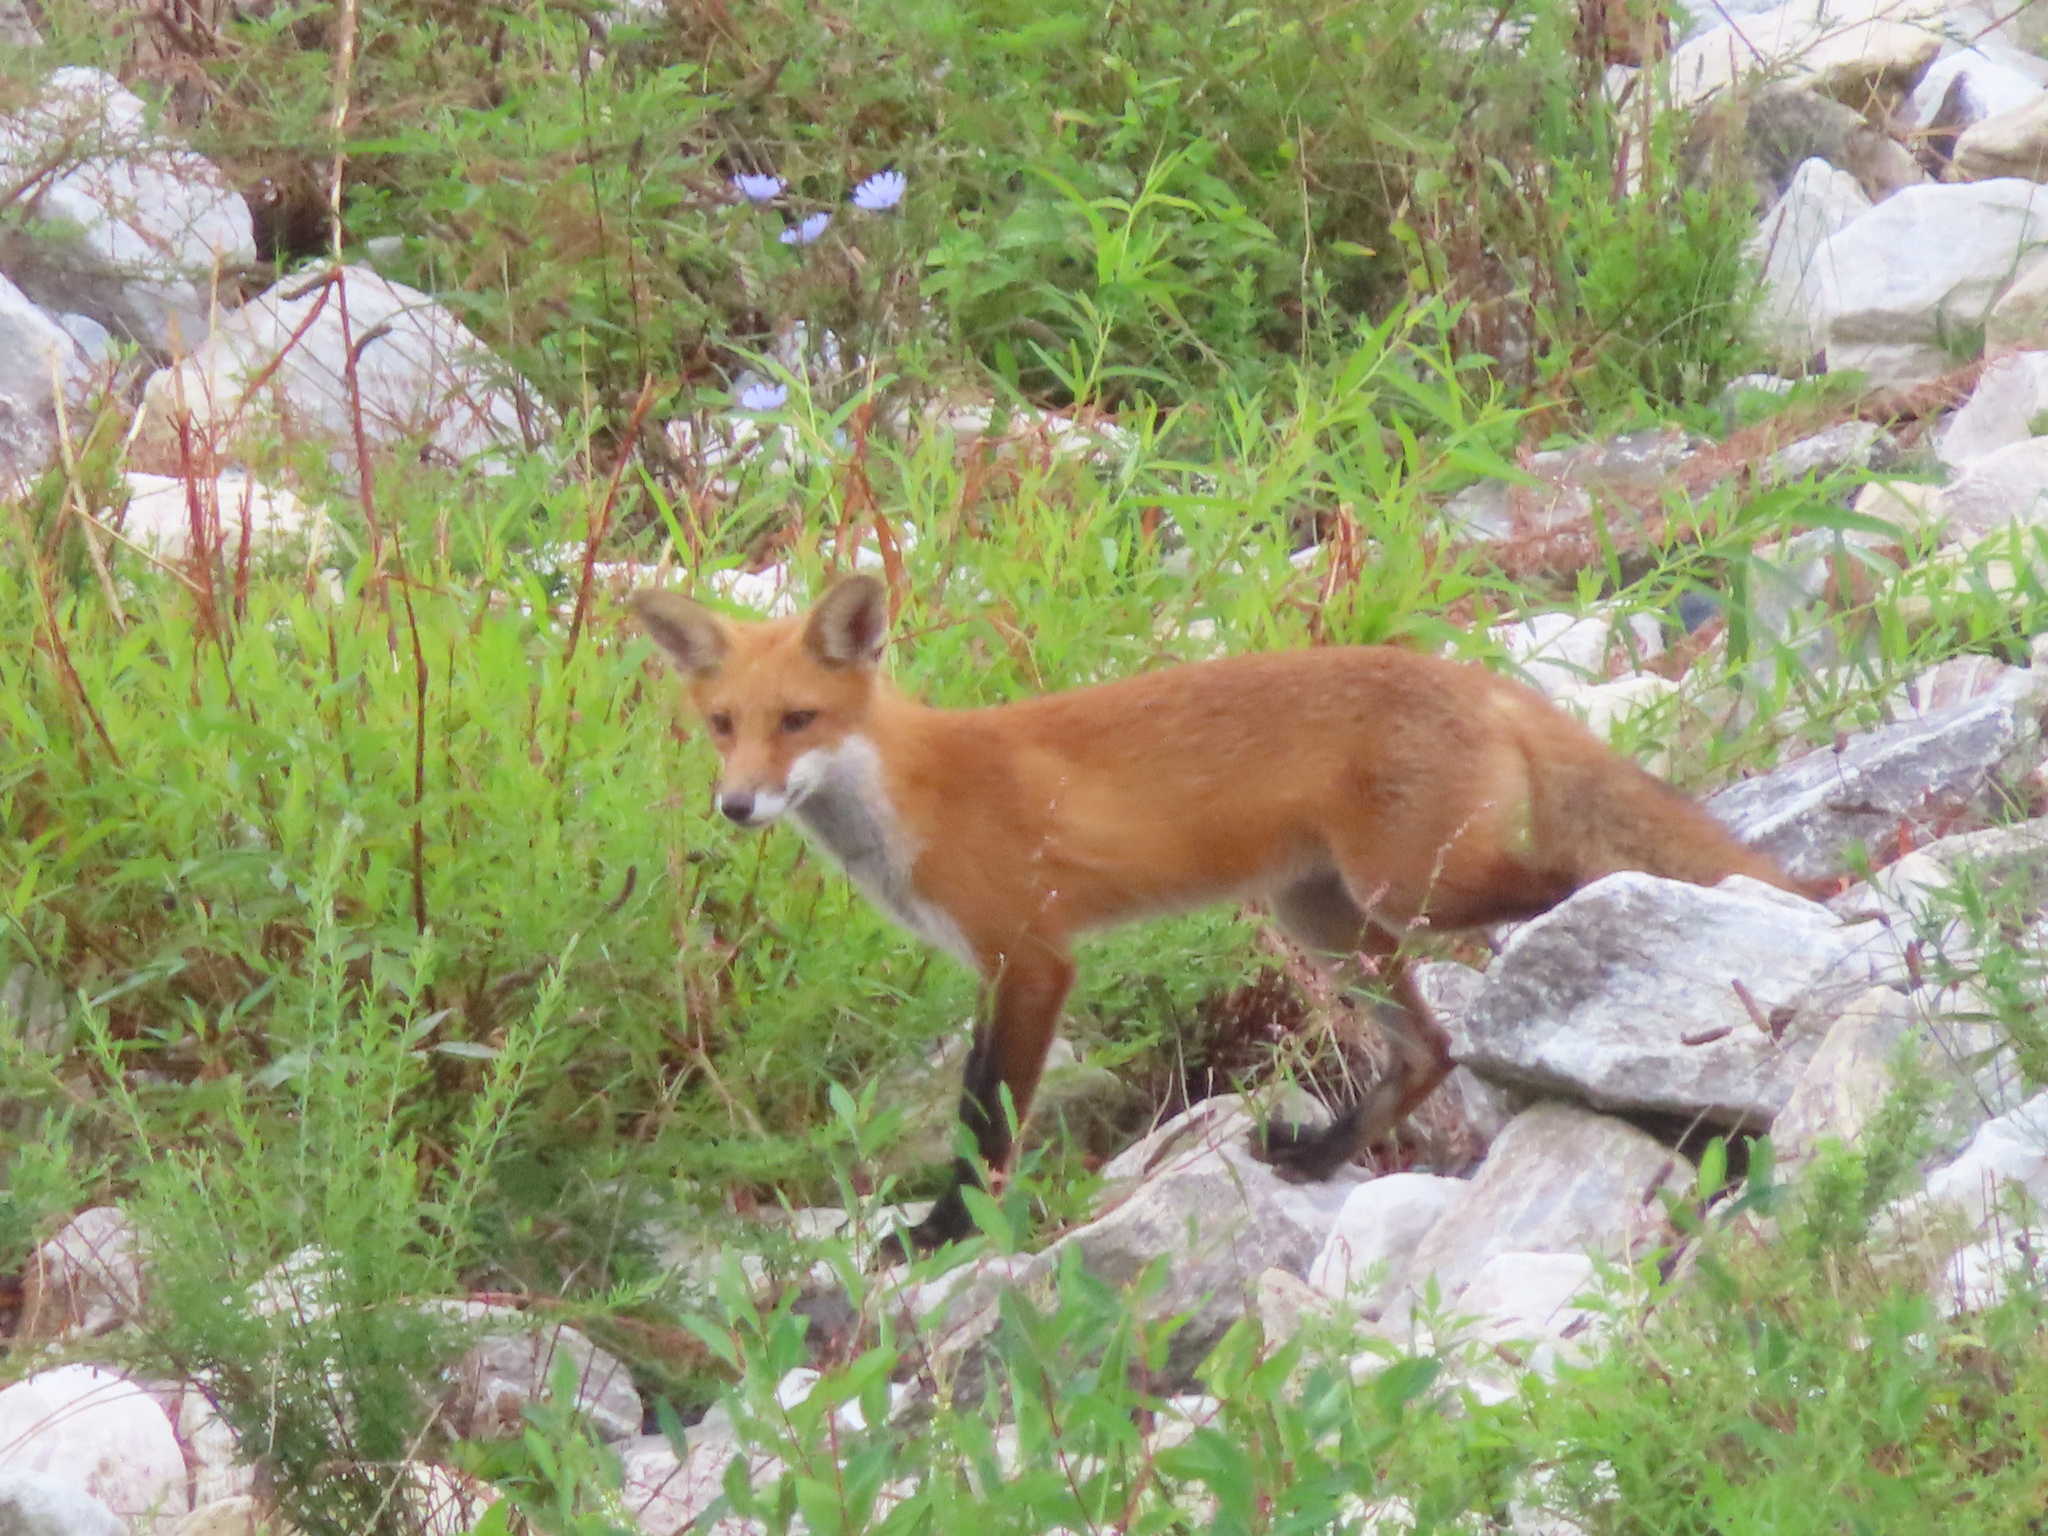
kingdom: Animalia
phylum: Chordata
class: Mammalia
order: Carnivora
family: Canidae
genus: Vulpes
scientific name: Vulpes vulpes
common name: Red fox
